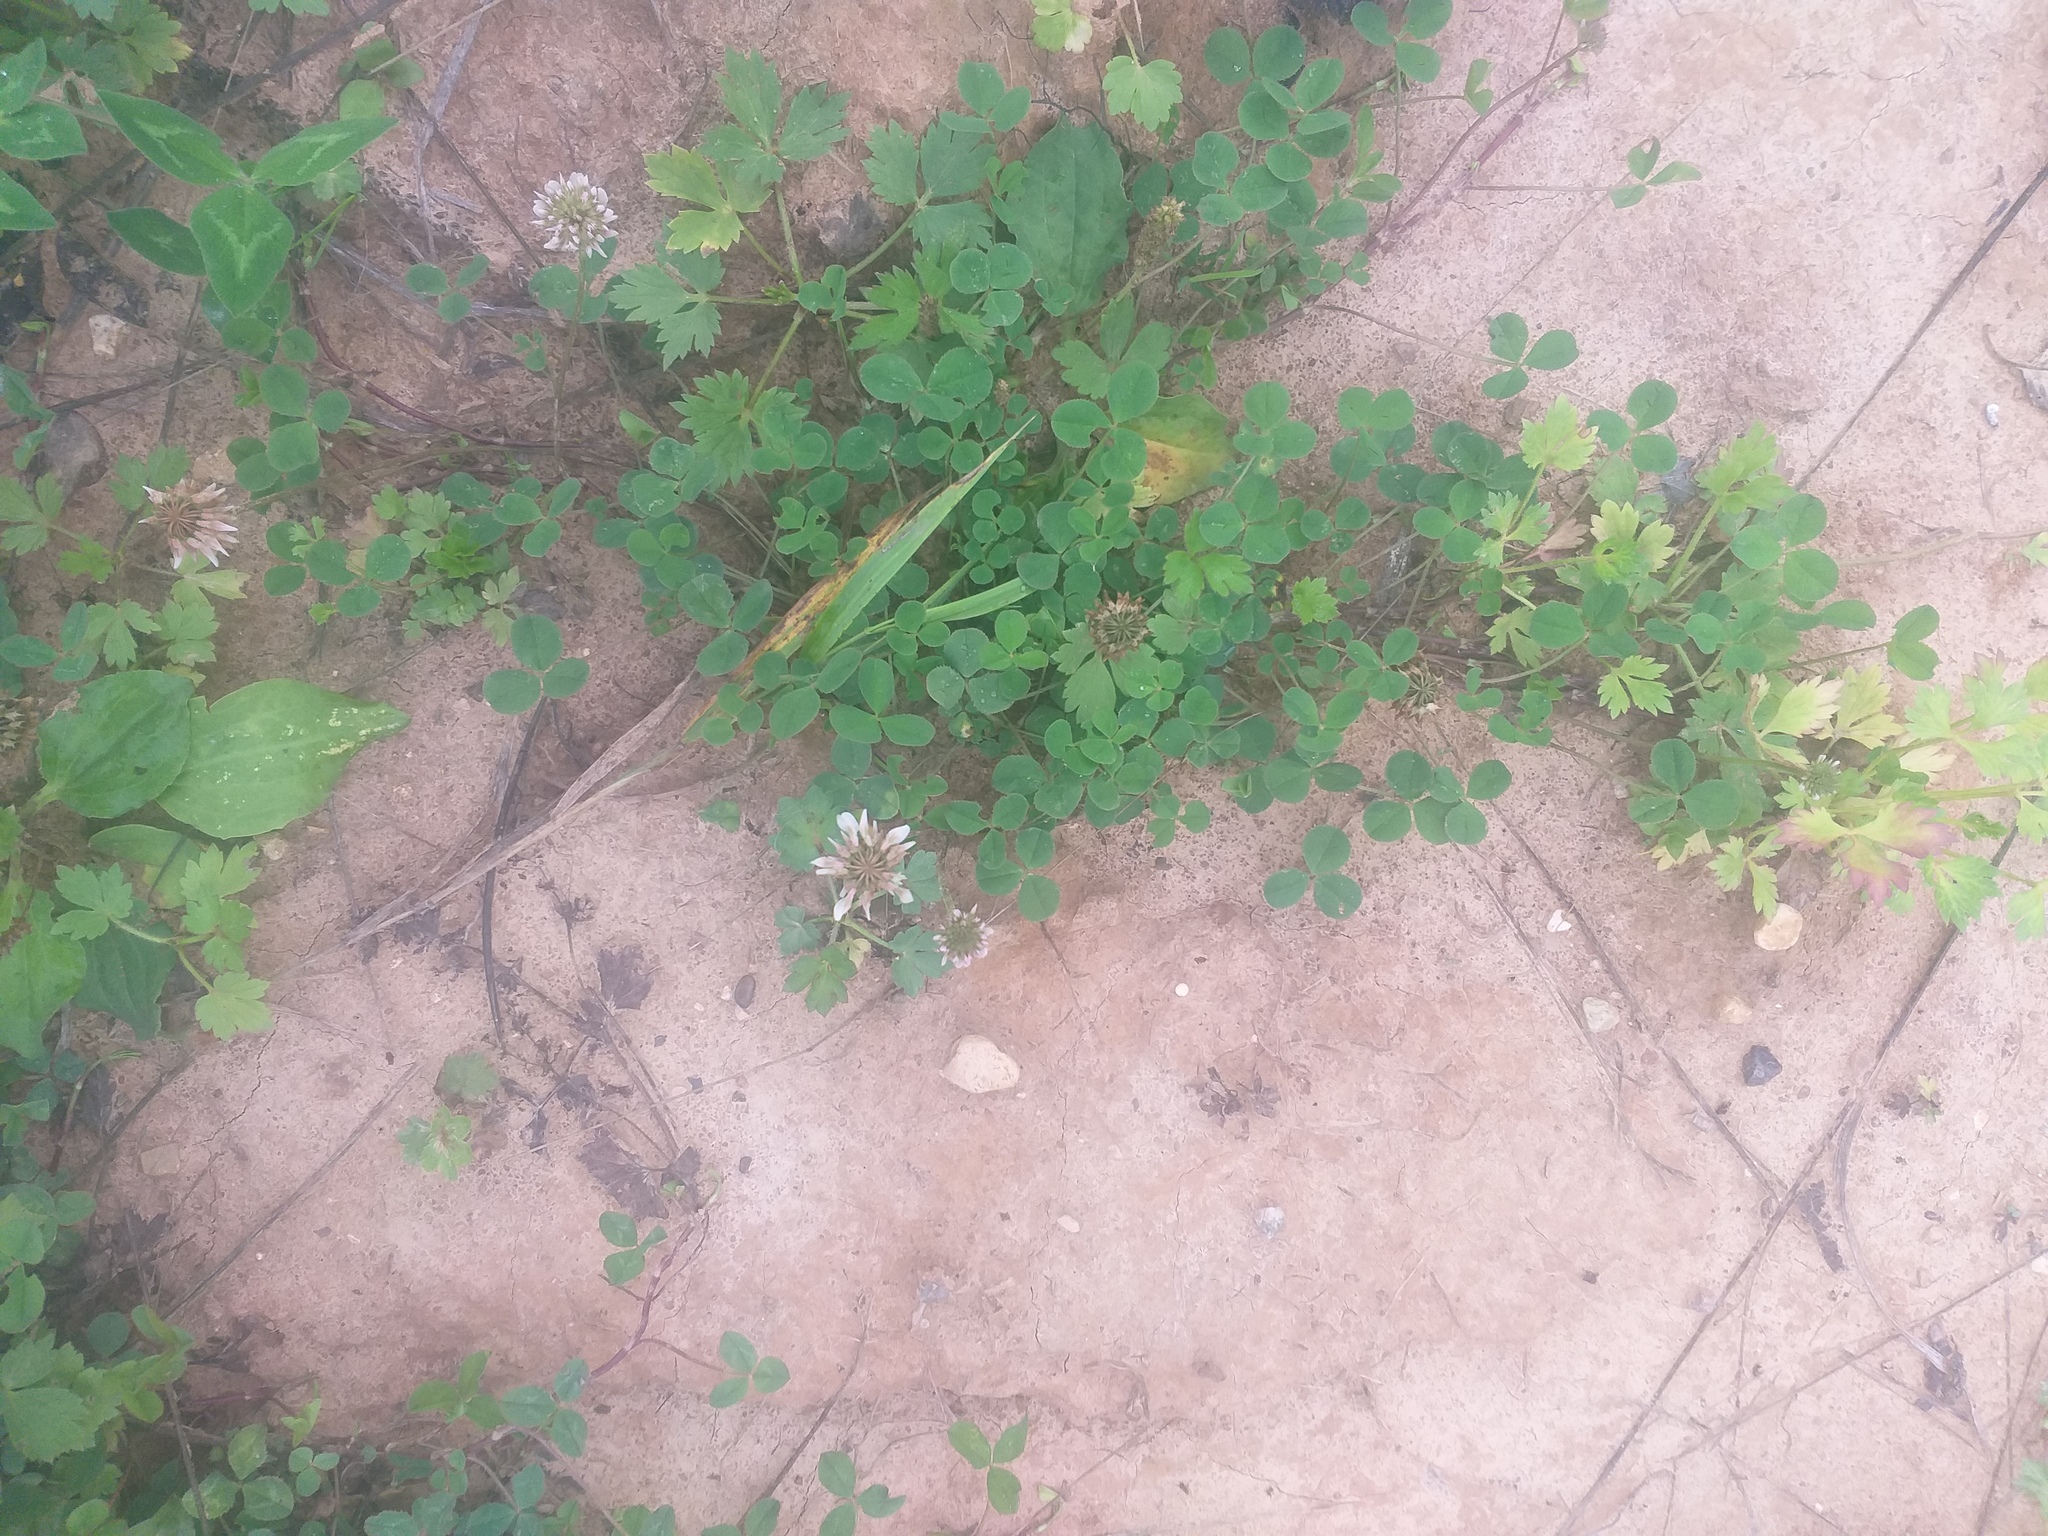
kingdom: Plantae
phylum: Tracheophyta
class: Magnoliopsida
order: Fabales
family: Fabaceae
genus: Trifolium
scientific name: Trifolium repens
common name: White clover
